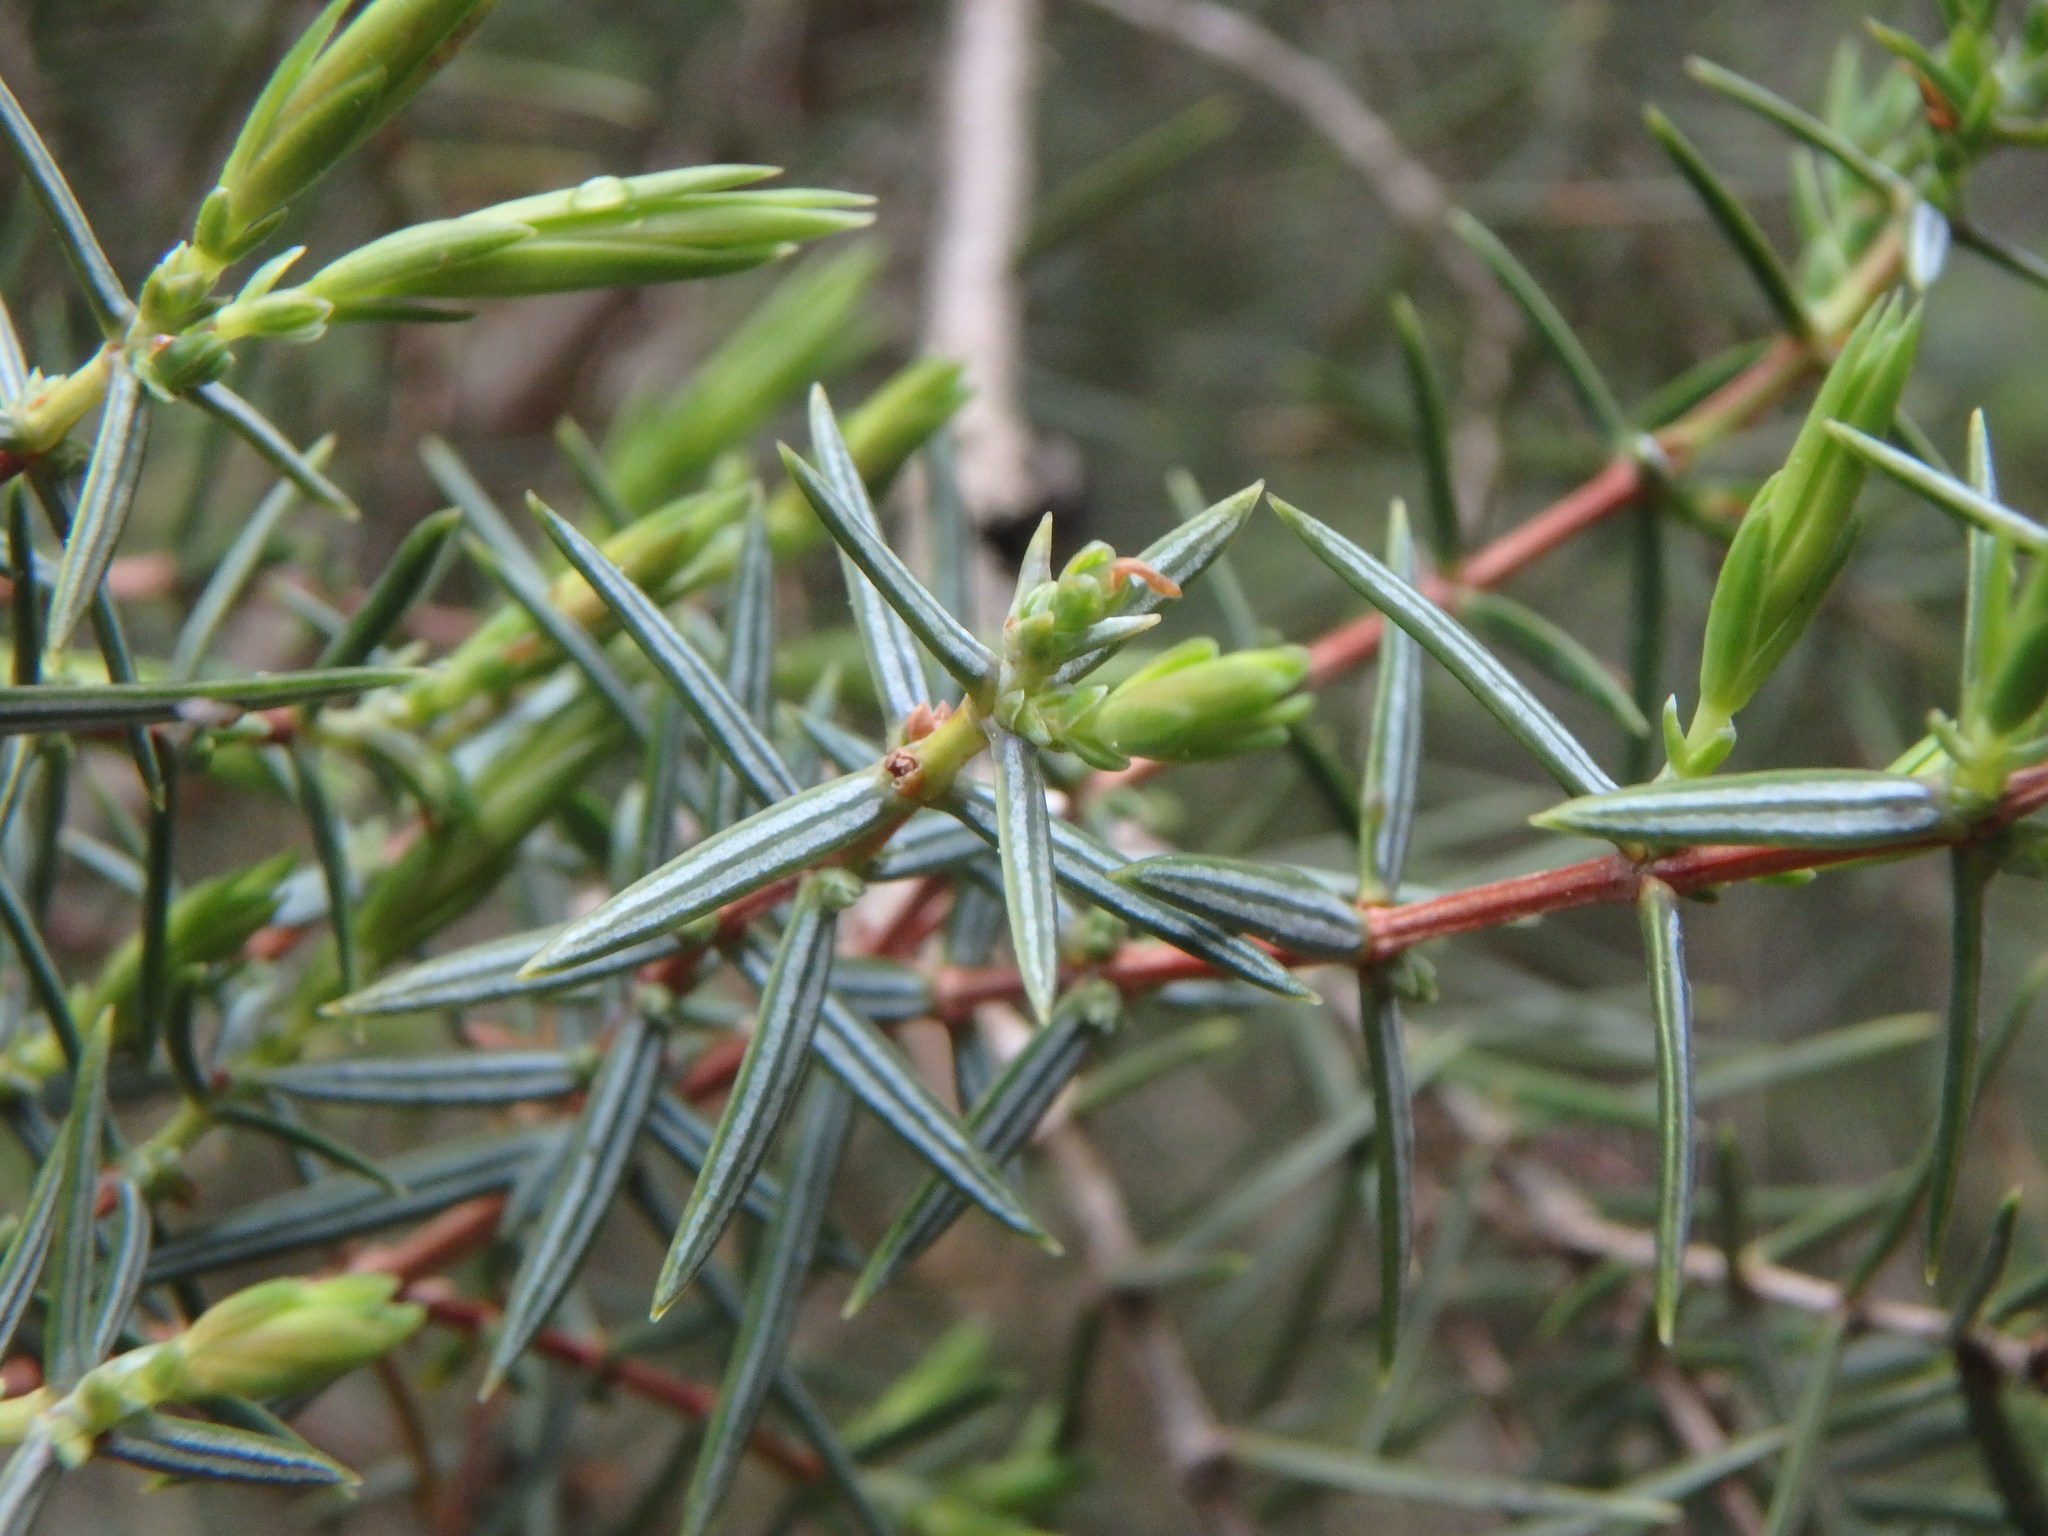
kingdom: Plantae
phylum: Tracheophyta
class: Pinopsida
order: Pinales
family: Cupressaceae
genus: Juniperus
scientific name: Juniperus oxycedrus
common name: Prickly juniper
